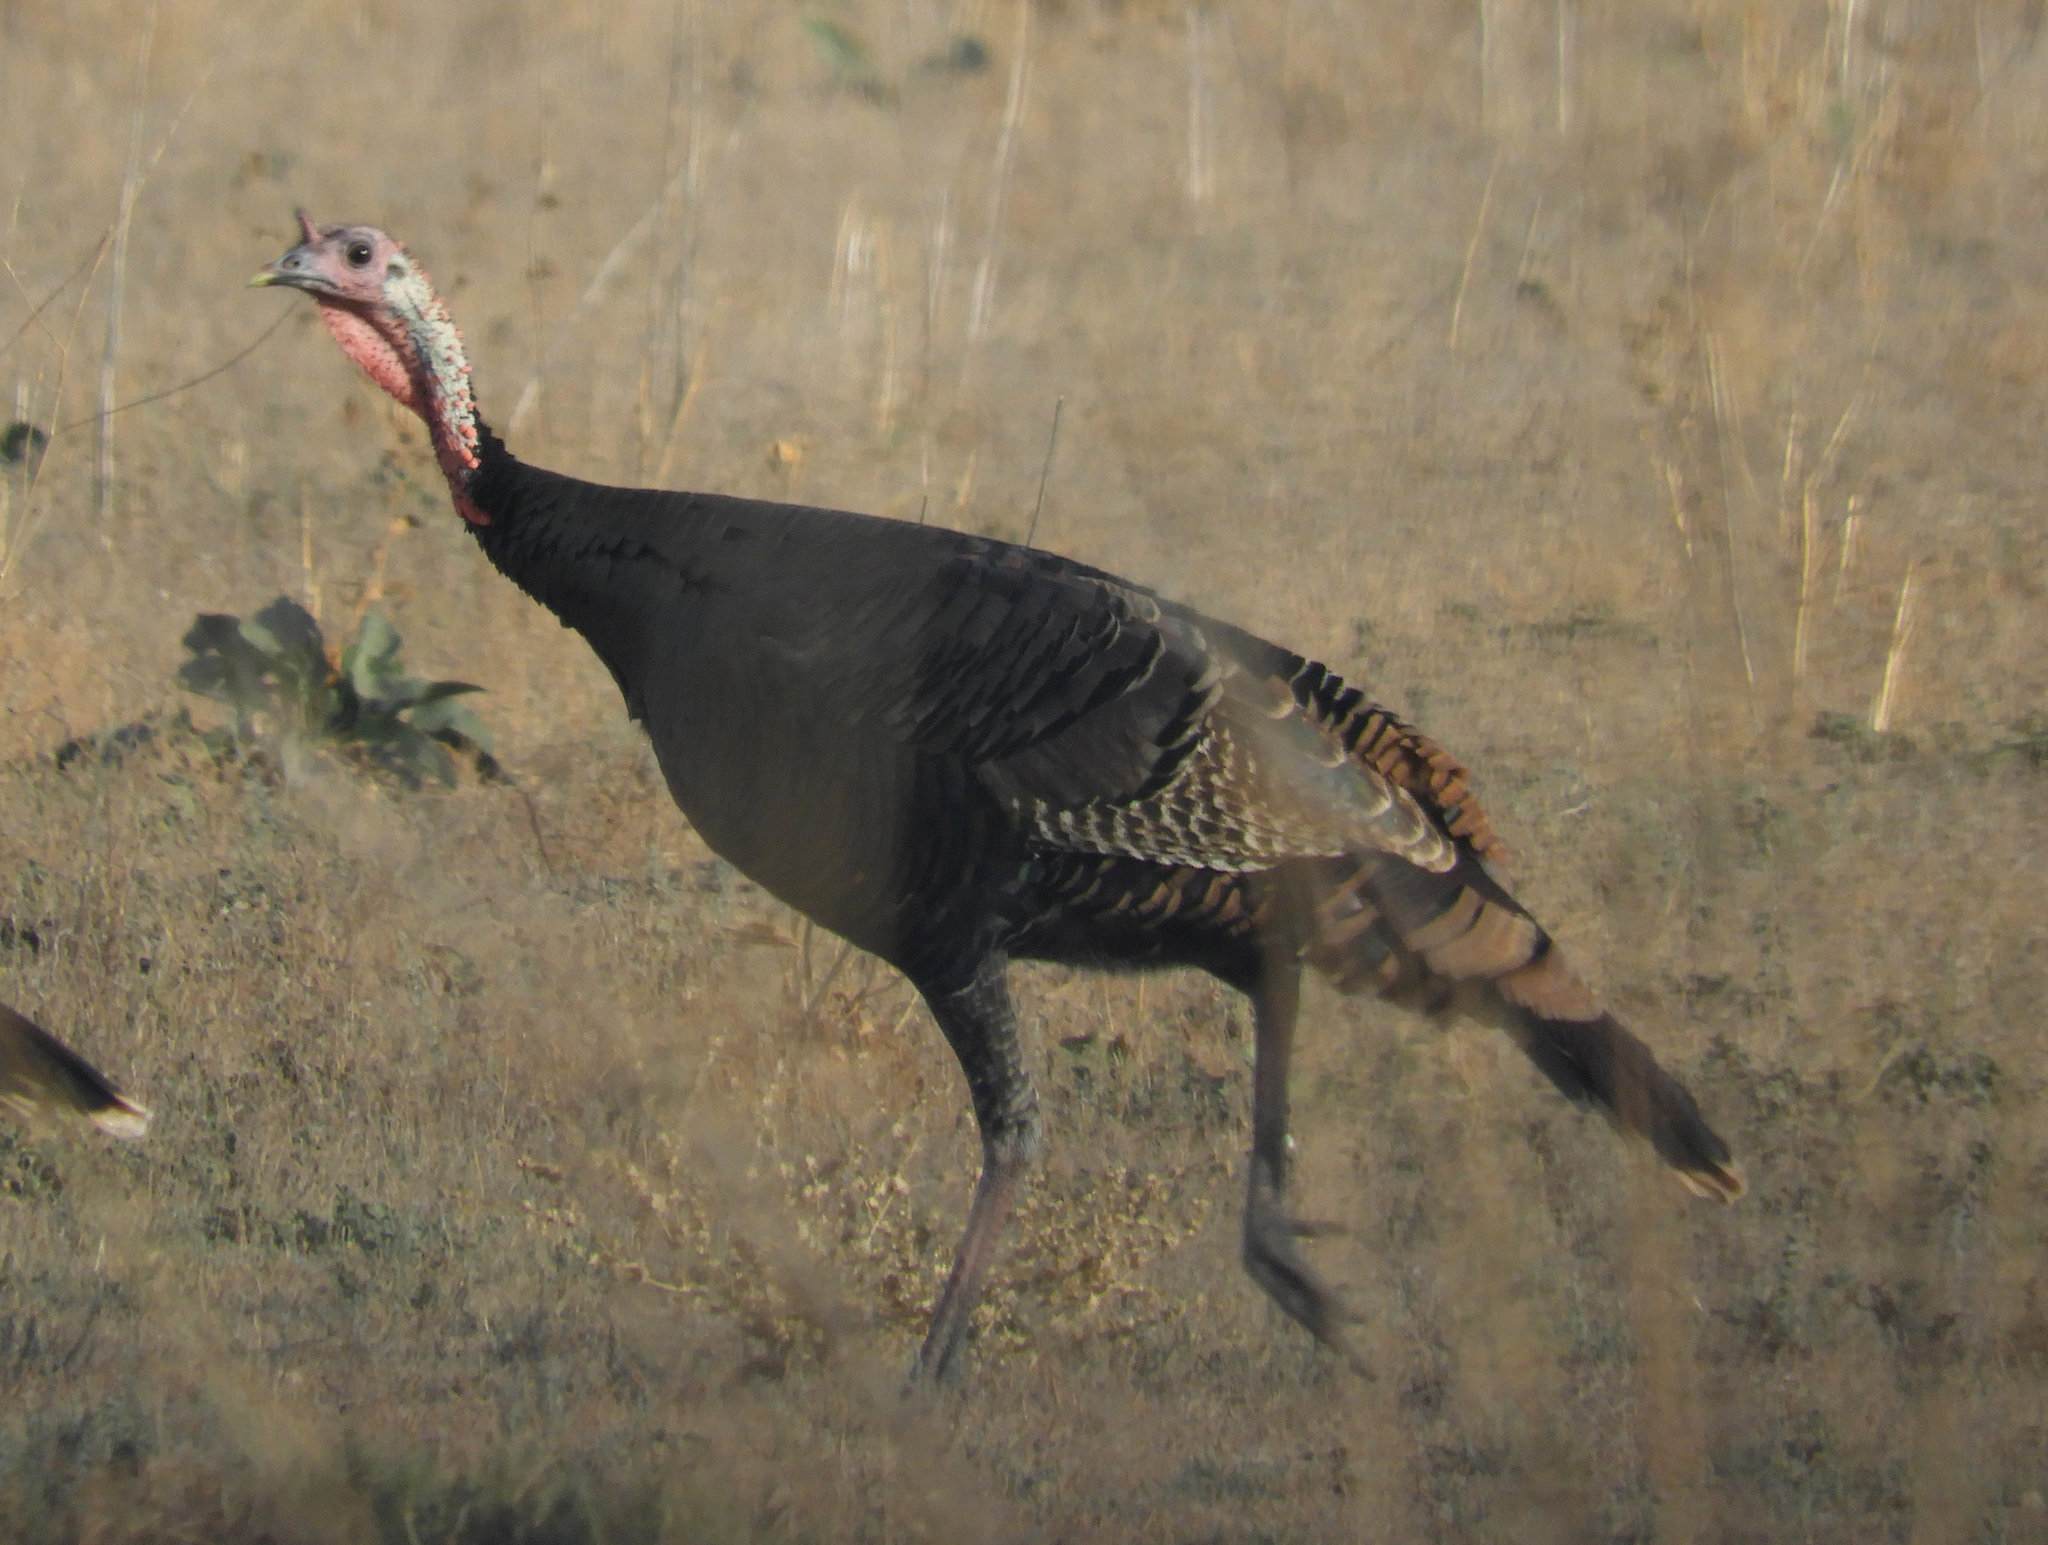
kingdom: Animalia
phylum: Chordata
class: Aves
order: Galliformes
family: Phasianidae
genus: Meleagris
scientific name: Meleagris gallopavo
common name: Wild turkey
